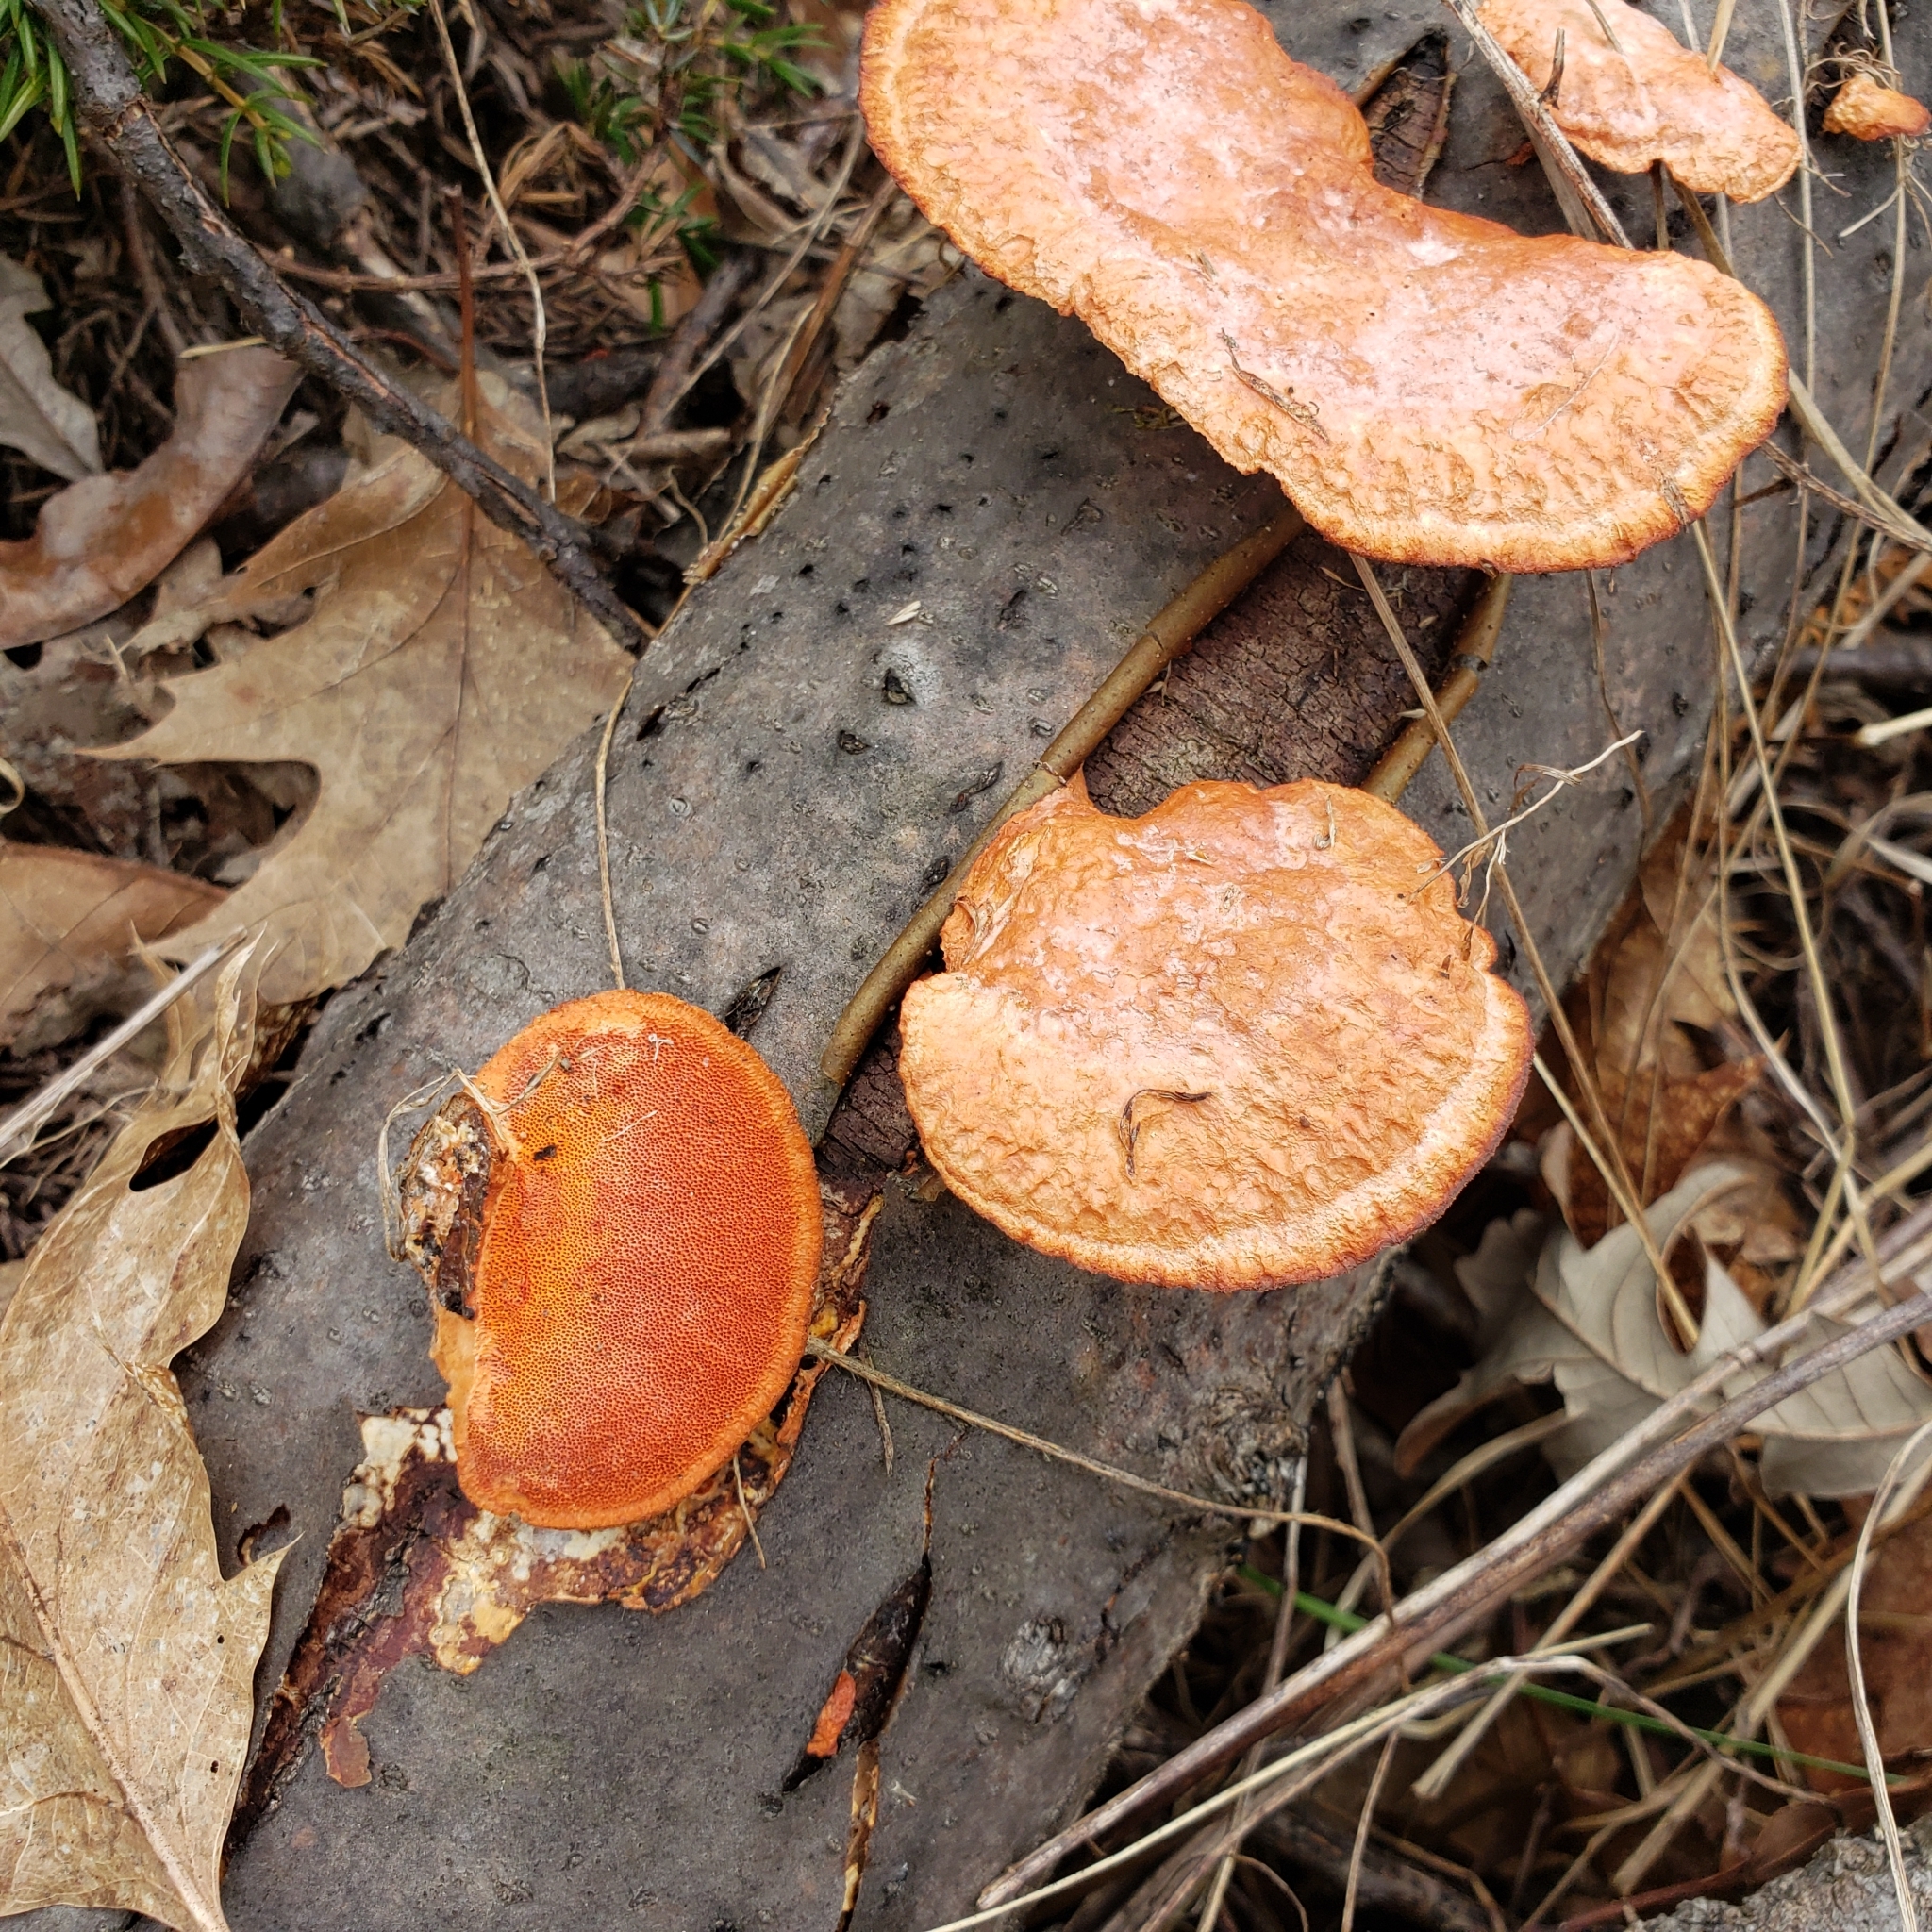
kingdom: Fungi
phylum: Basidiomycota
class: Agaricomycetes
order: Polyporales
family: Polyporaceae
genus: Trametes
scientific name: Trametes cinnabarina
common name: Northern cinnabar polypore
